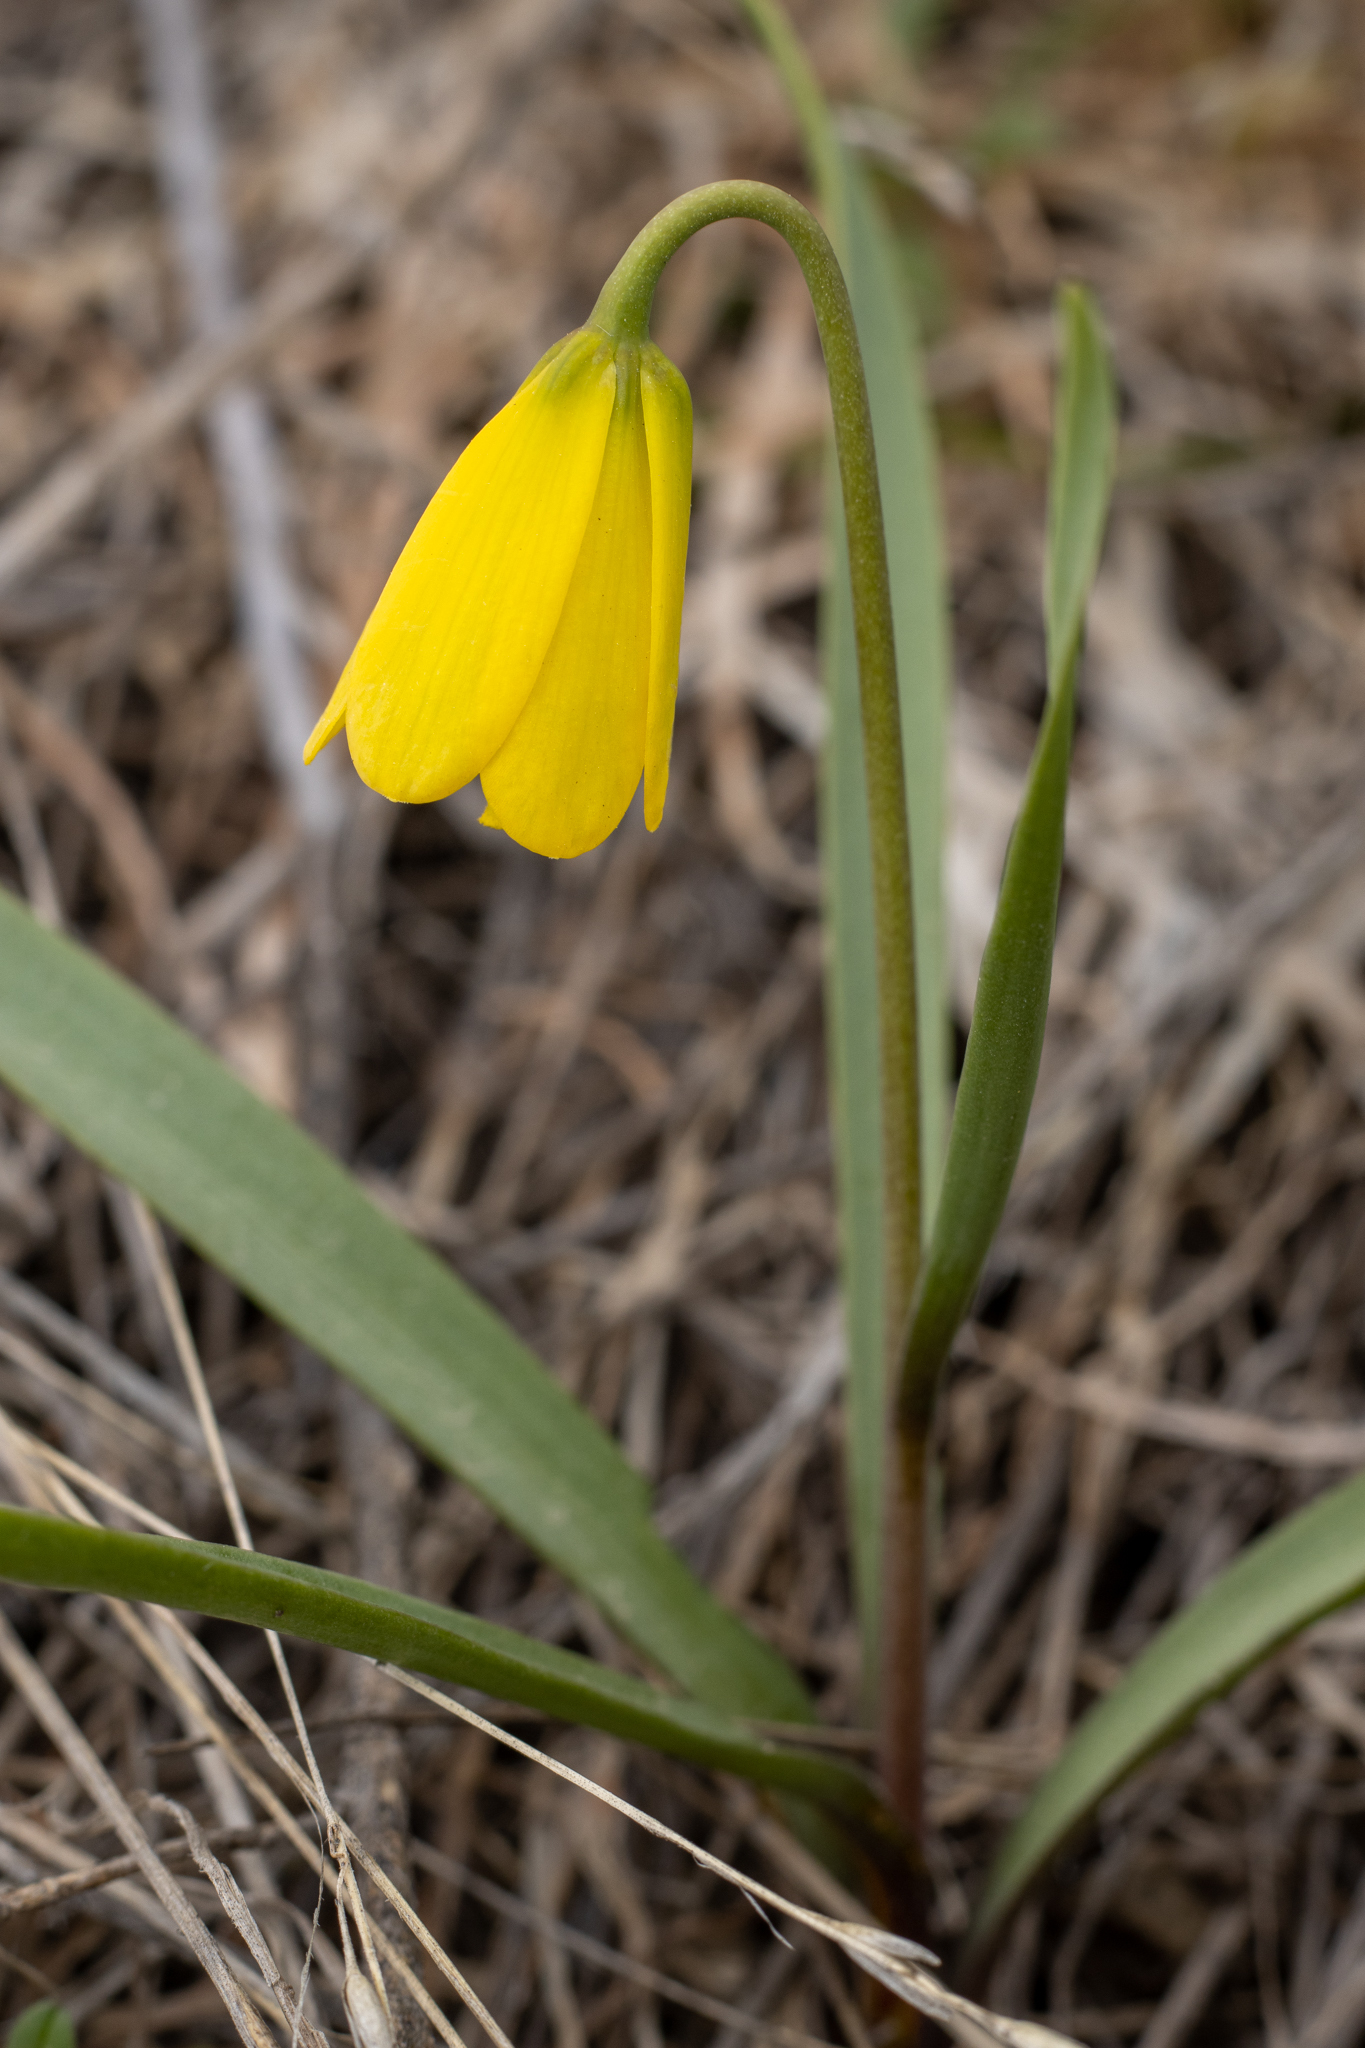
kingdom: Plantae
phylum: Tracheophyta
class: Liliopsida
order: Liliales
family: Liliaceae
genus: Fritillaria
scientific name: Fritillaria pudica
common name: Yellow fritillary
